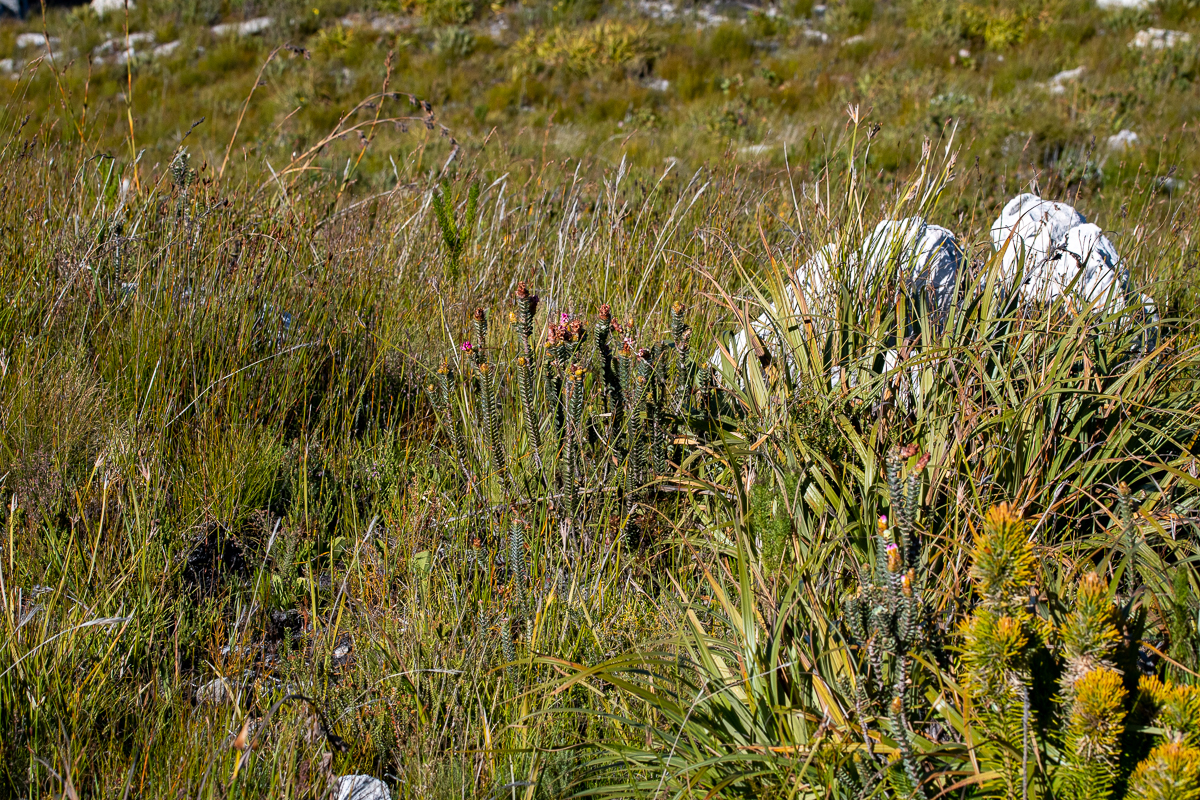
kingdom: Plantae
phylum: Tracheophyta
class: Magnoliopsida
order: Myrtales
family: Penaeaceae
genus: Saltera
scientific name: Saltera sarcocolla
